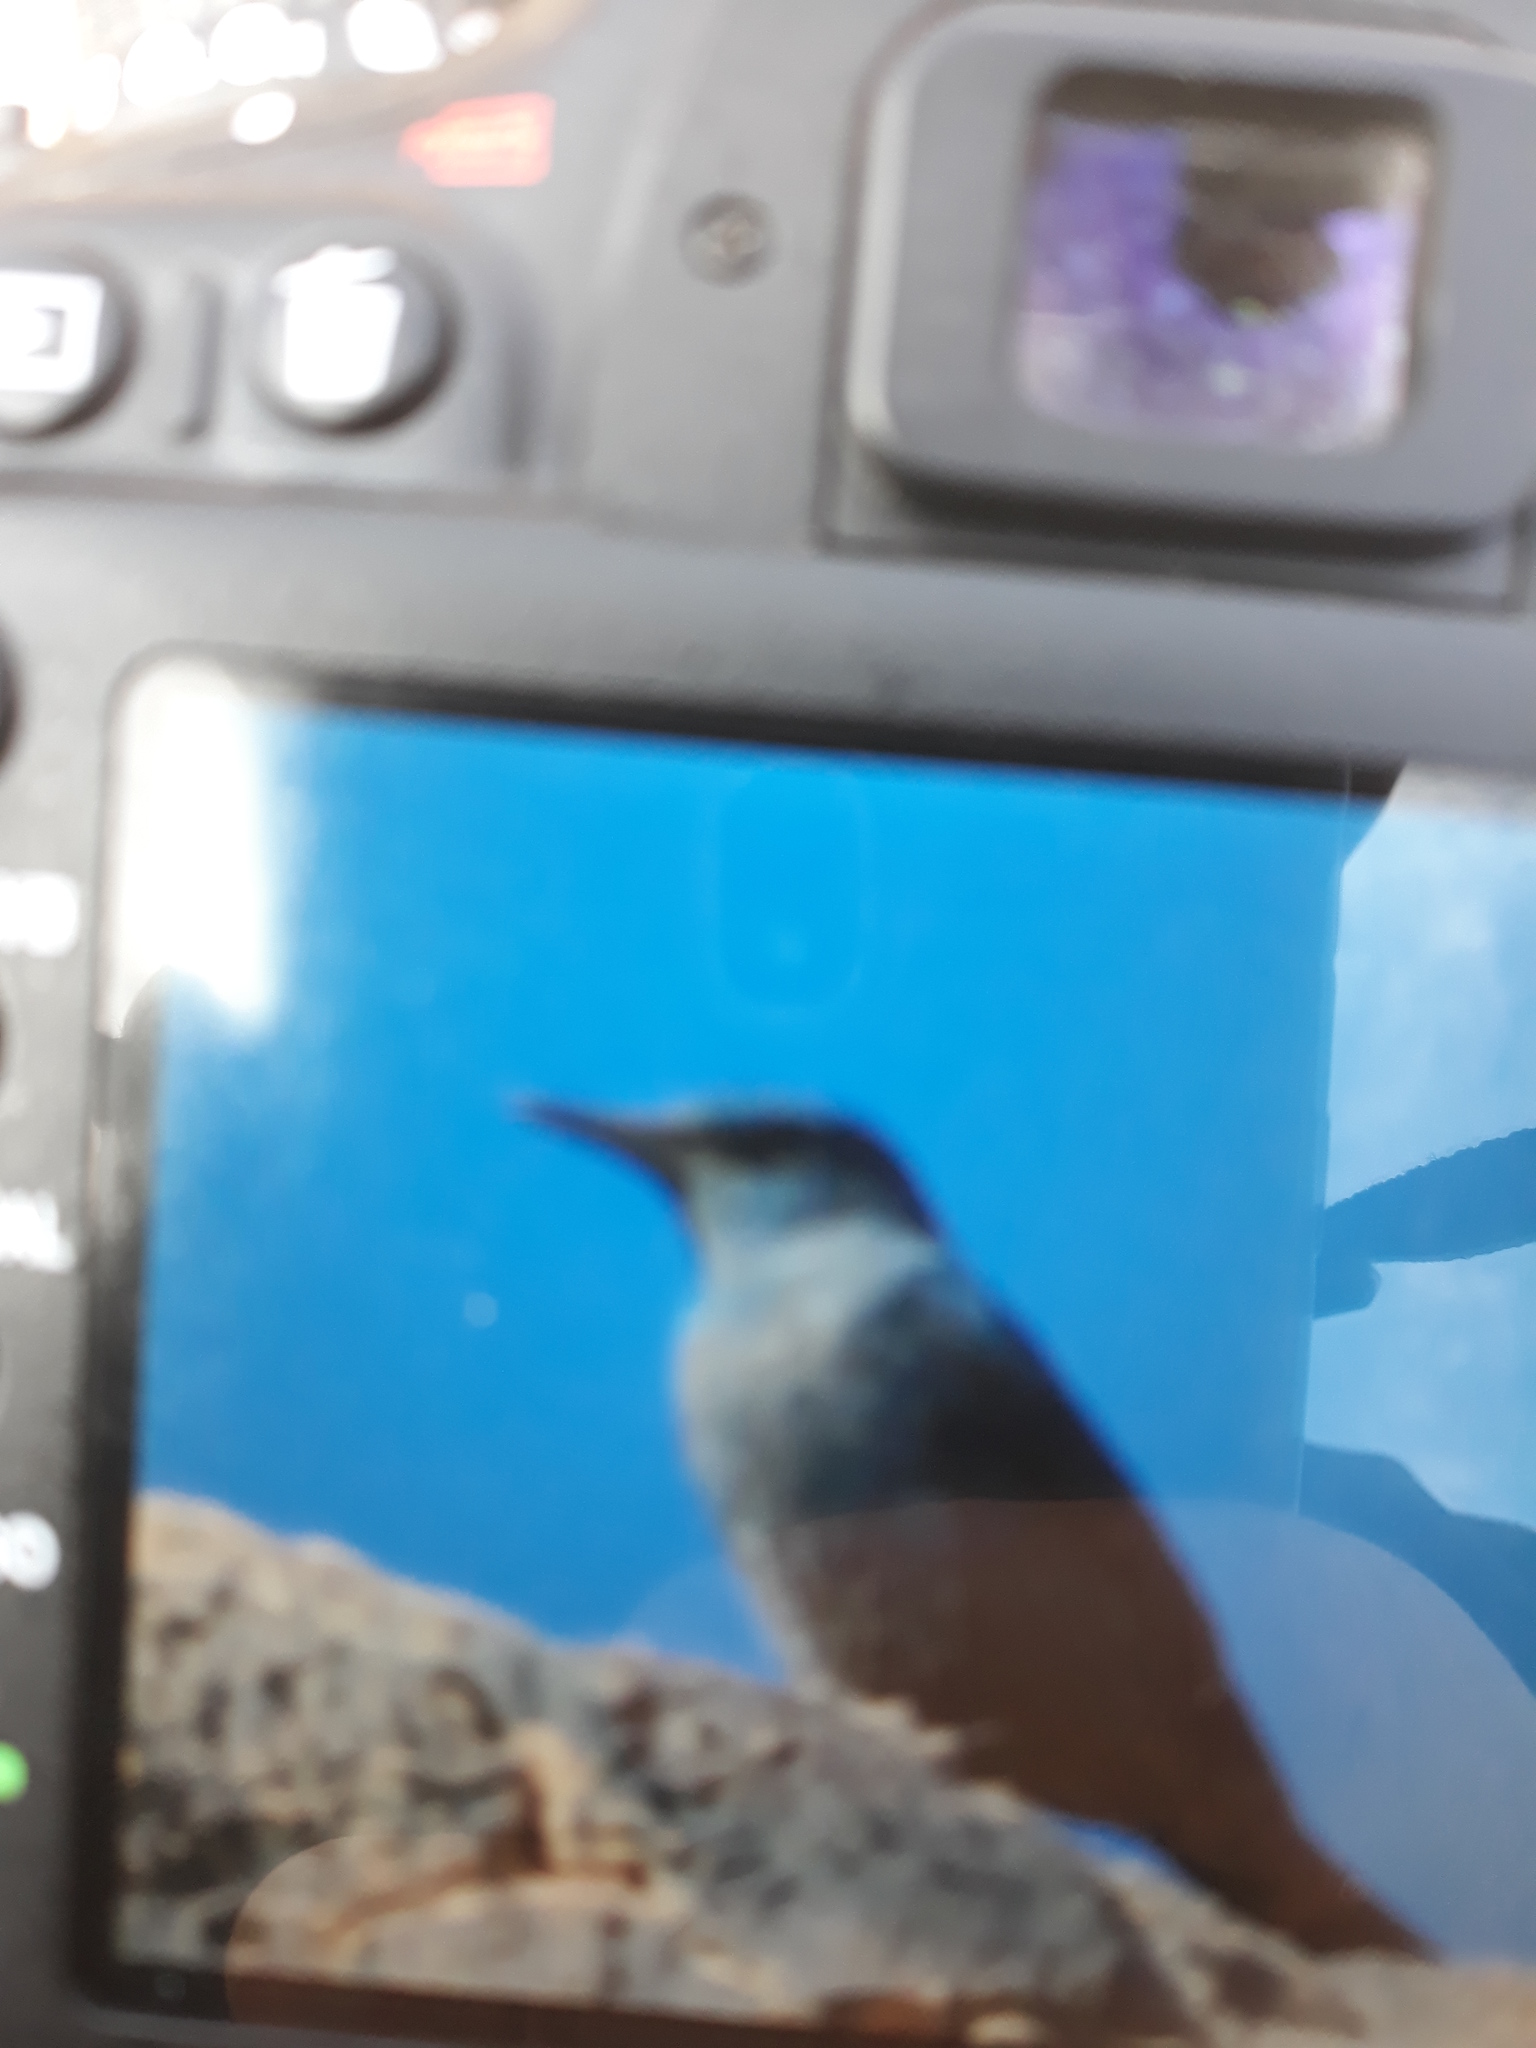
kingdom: Animalia
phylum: Chordata
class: Aves
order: Passeriformes
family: Muscicapidae
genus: Monticola
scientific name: Monticola solitarius
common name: Blue rock thrush
